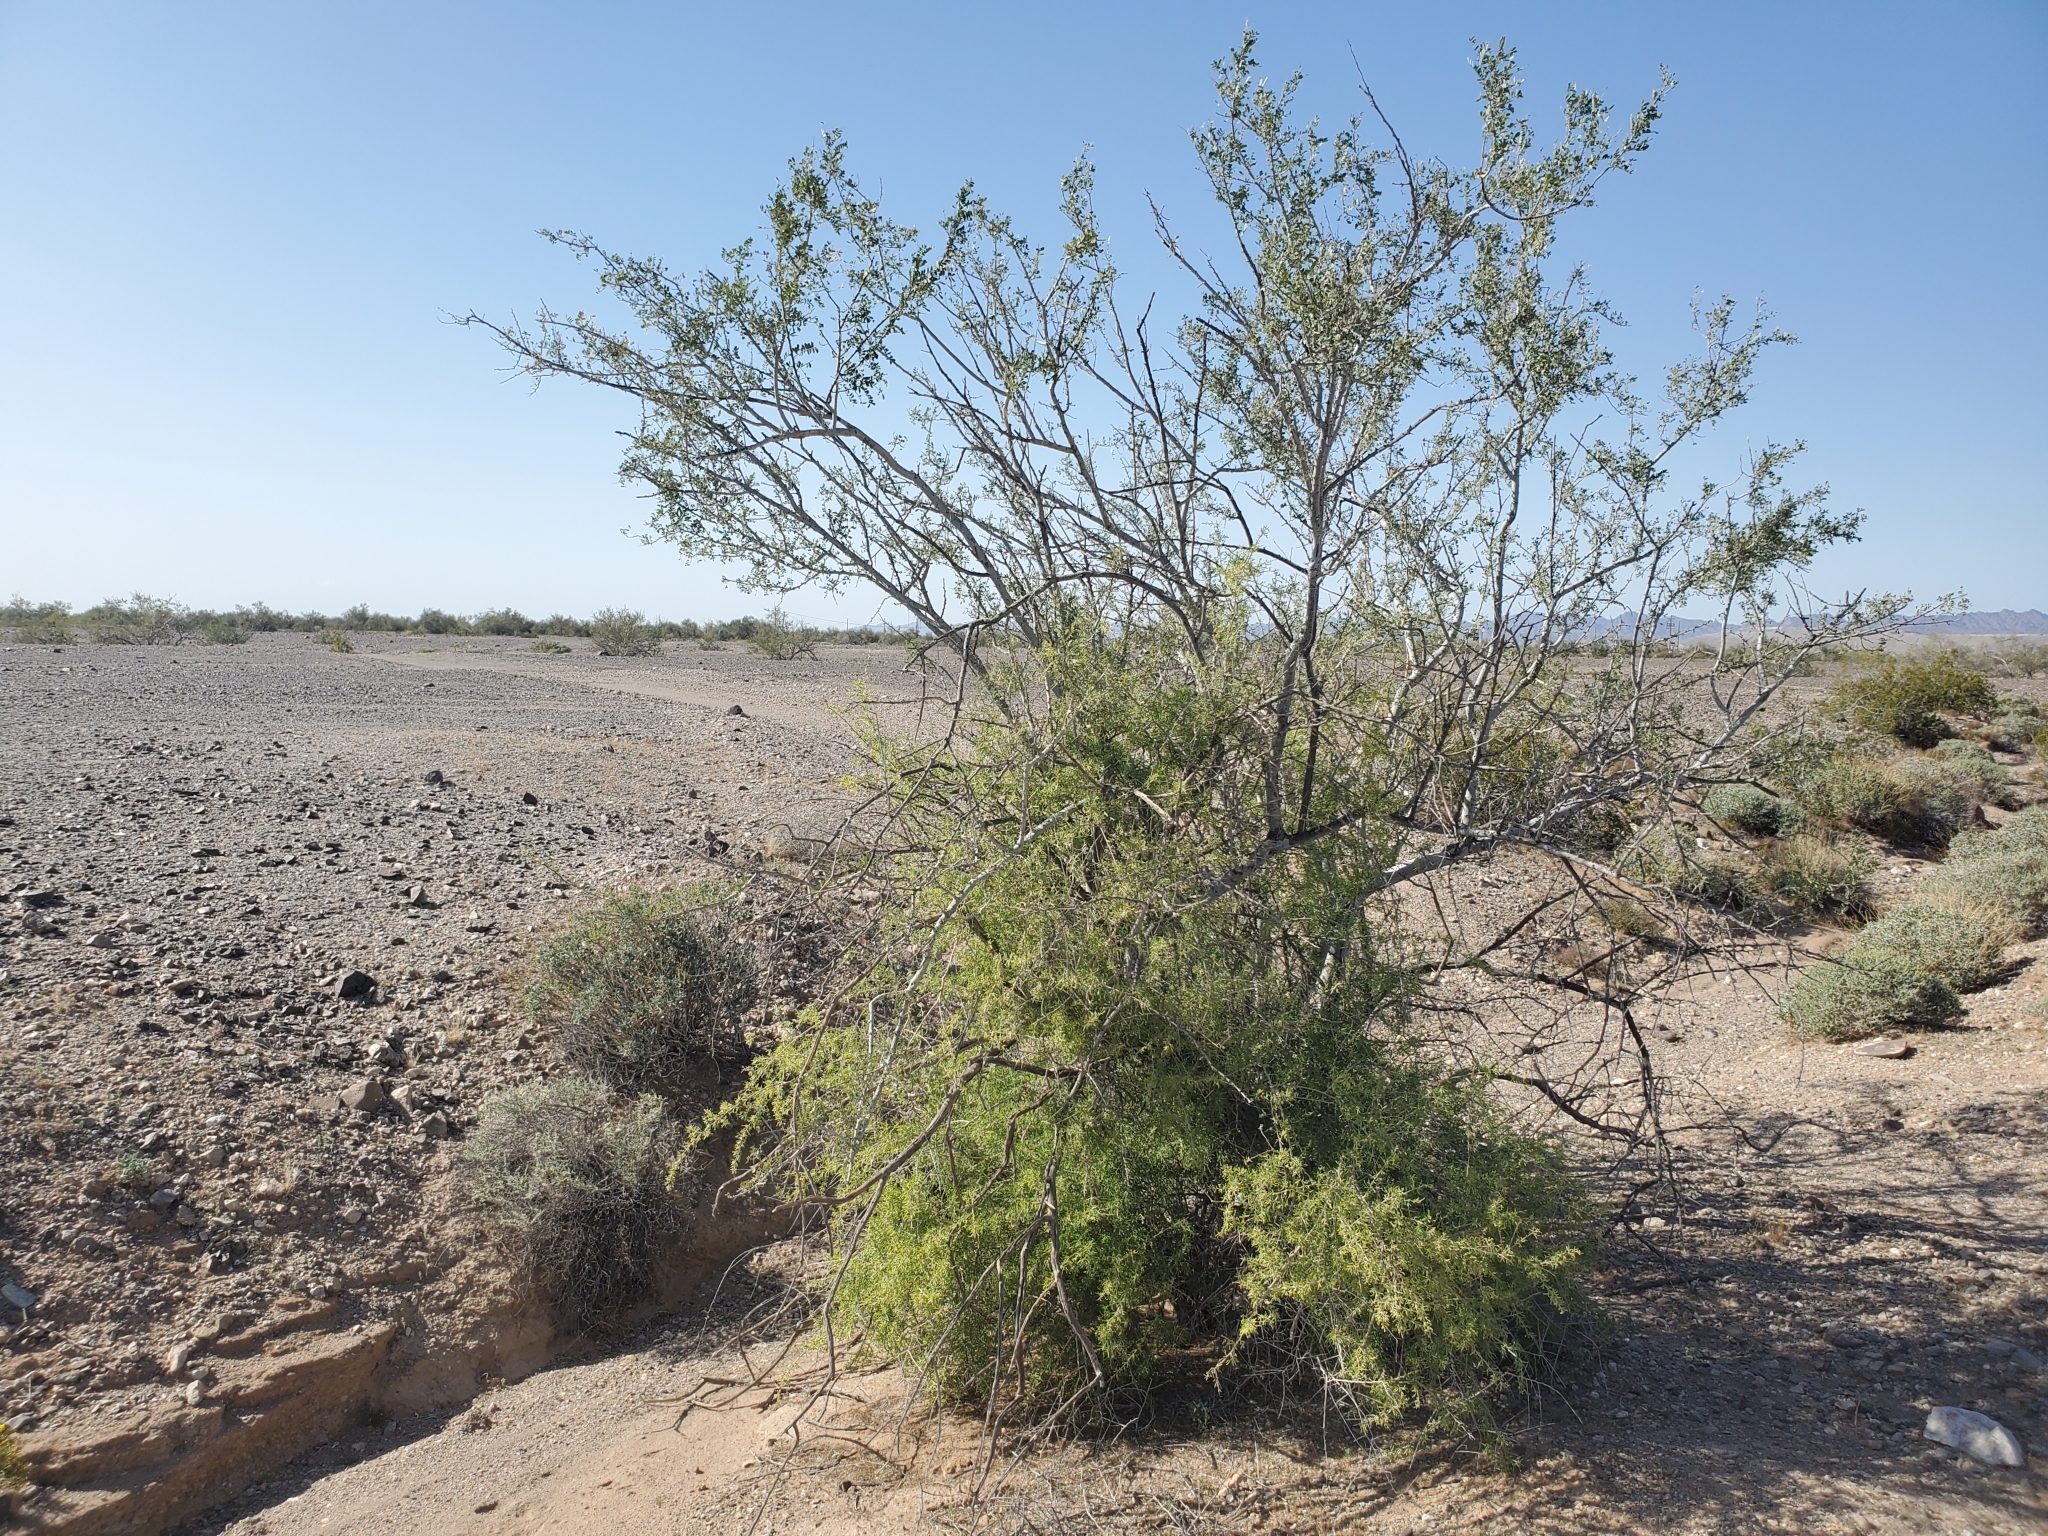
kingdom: Plantae
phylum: Tracheophyta
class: Magnoliopsida
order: Fabales
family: Fabaceae
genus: Olneya
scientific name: Olneya tesota
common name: Desert ironwood
